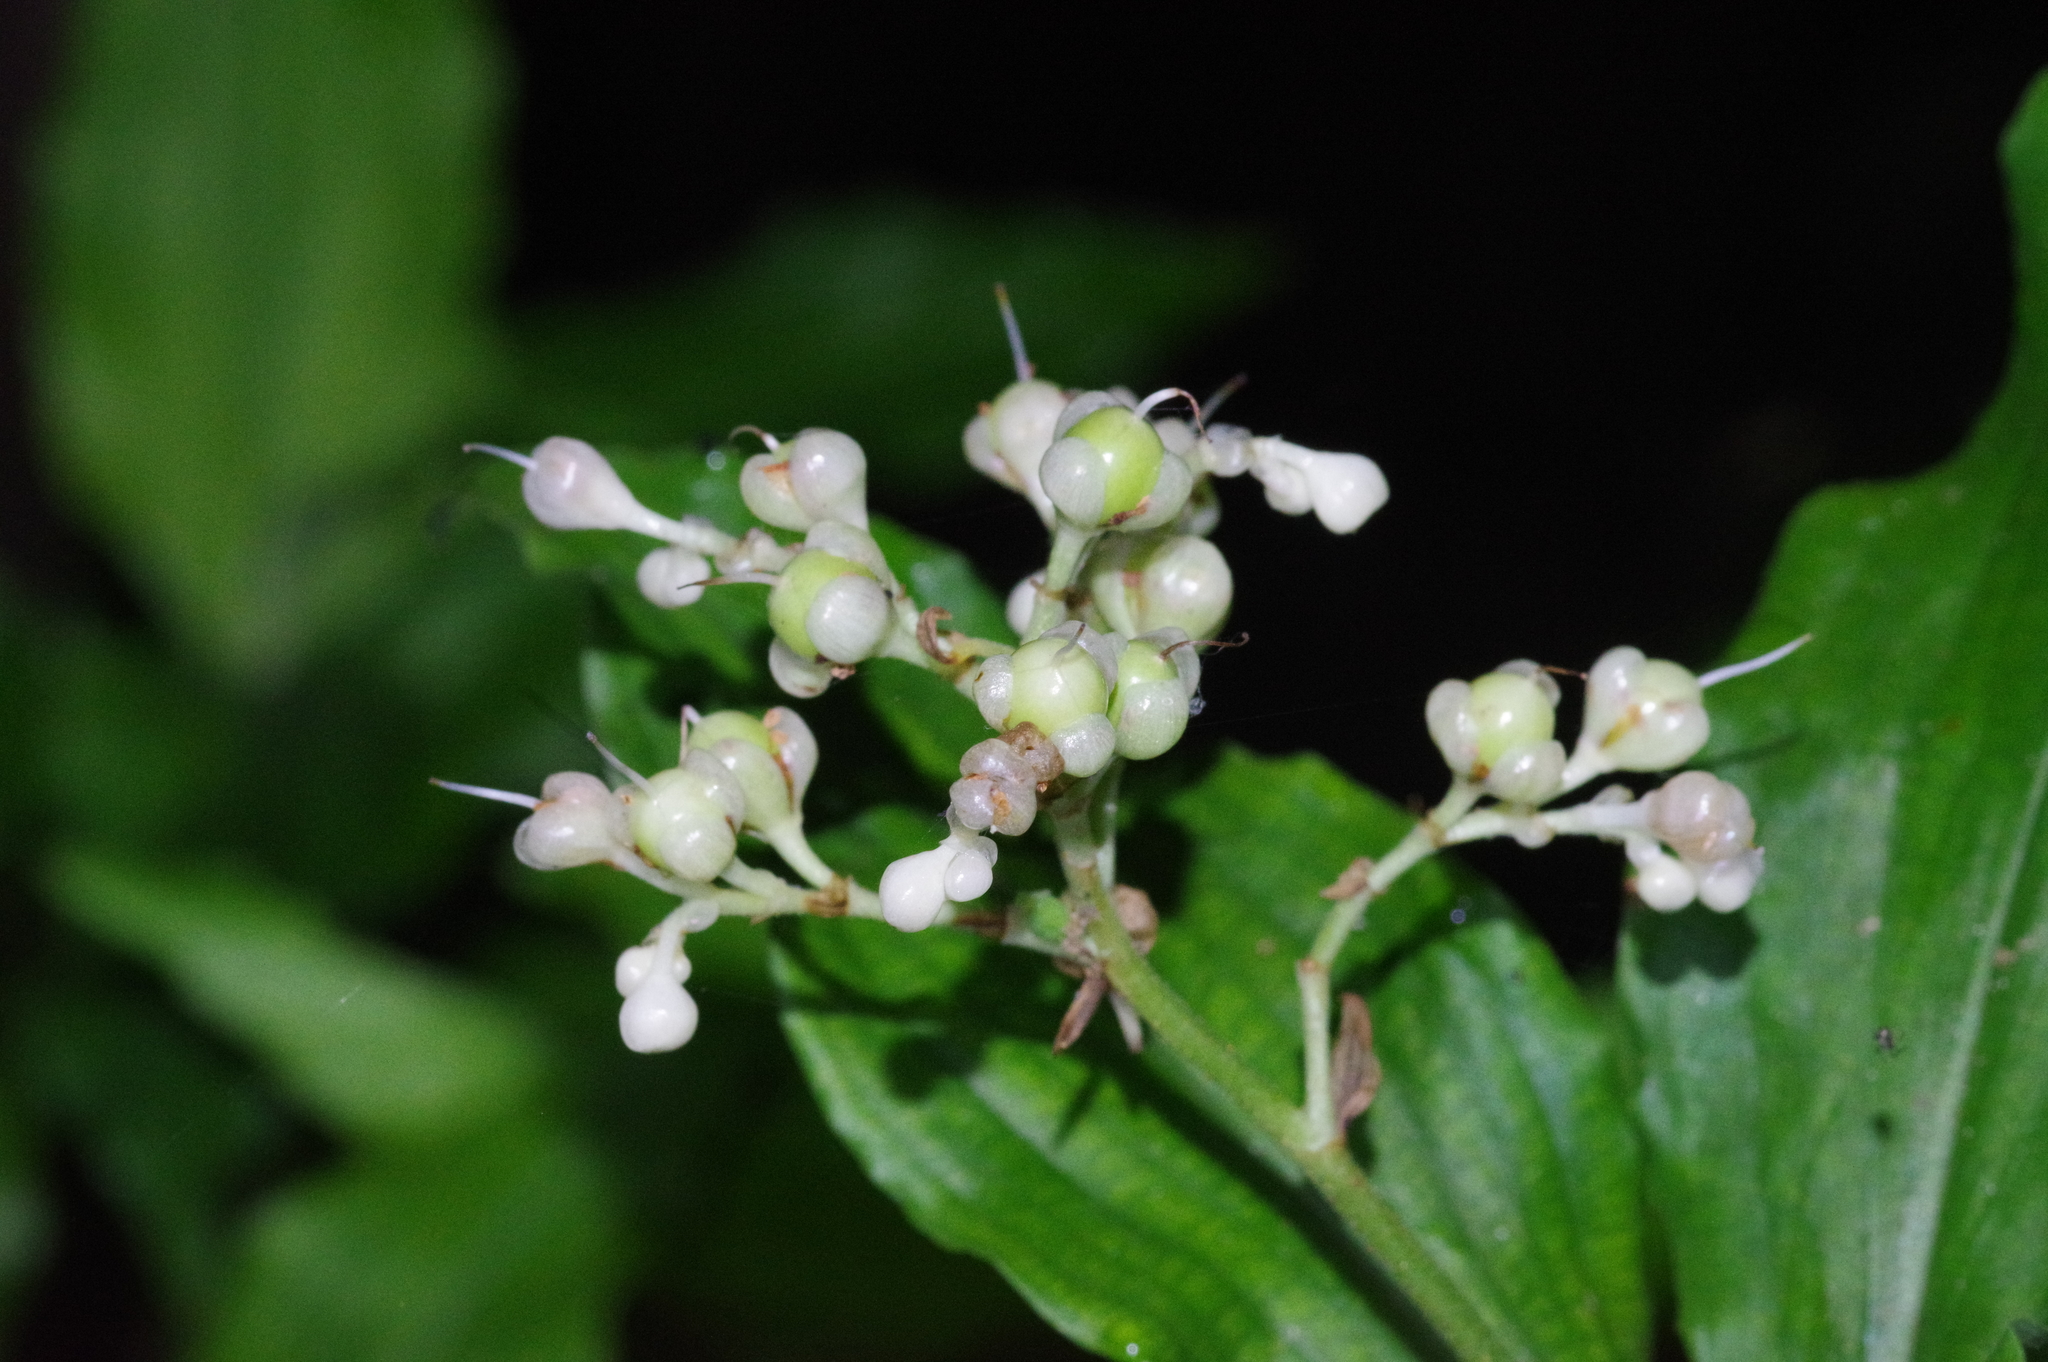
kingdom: Plantae
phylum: Tracheophyta
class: Liliopsida
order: Commelinales
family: Commelinaceae
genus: Pollia
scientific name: Pollia miranda
